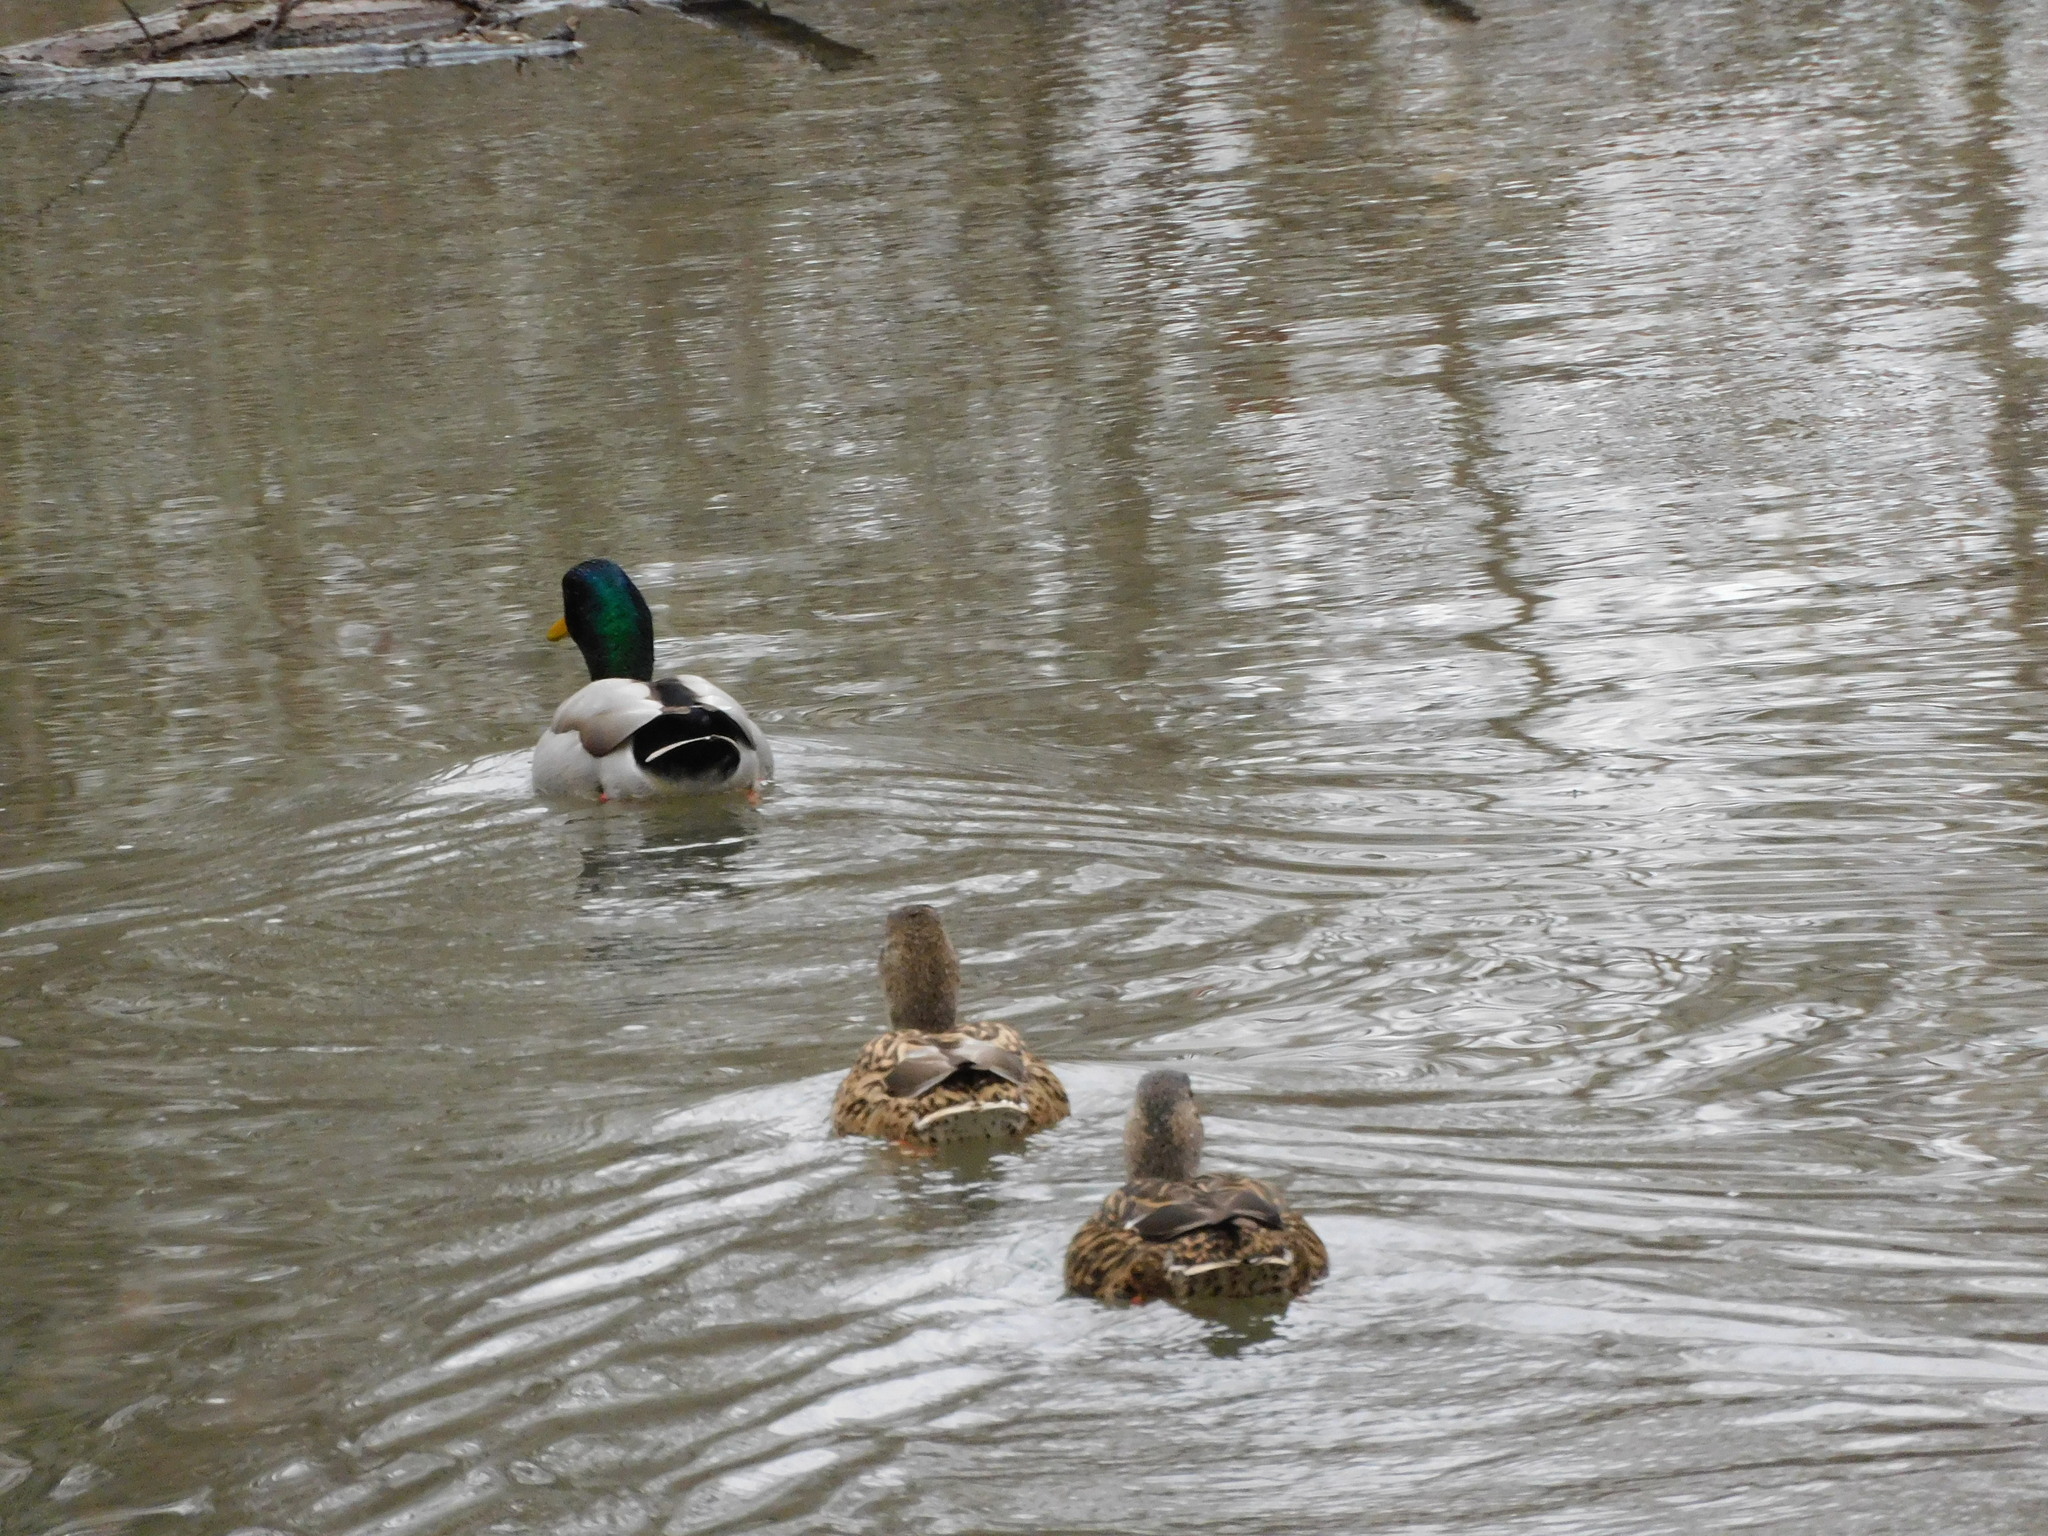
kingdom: Animalia
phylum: Chordata
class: Aves
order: Anseriformes
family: Anatidae
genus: Anas
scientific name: Anas platyrhynchos
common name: Mallard
